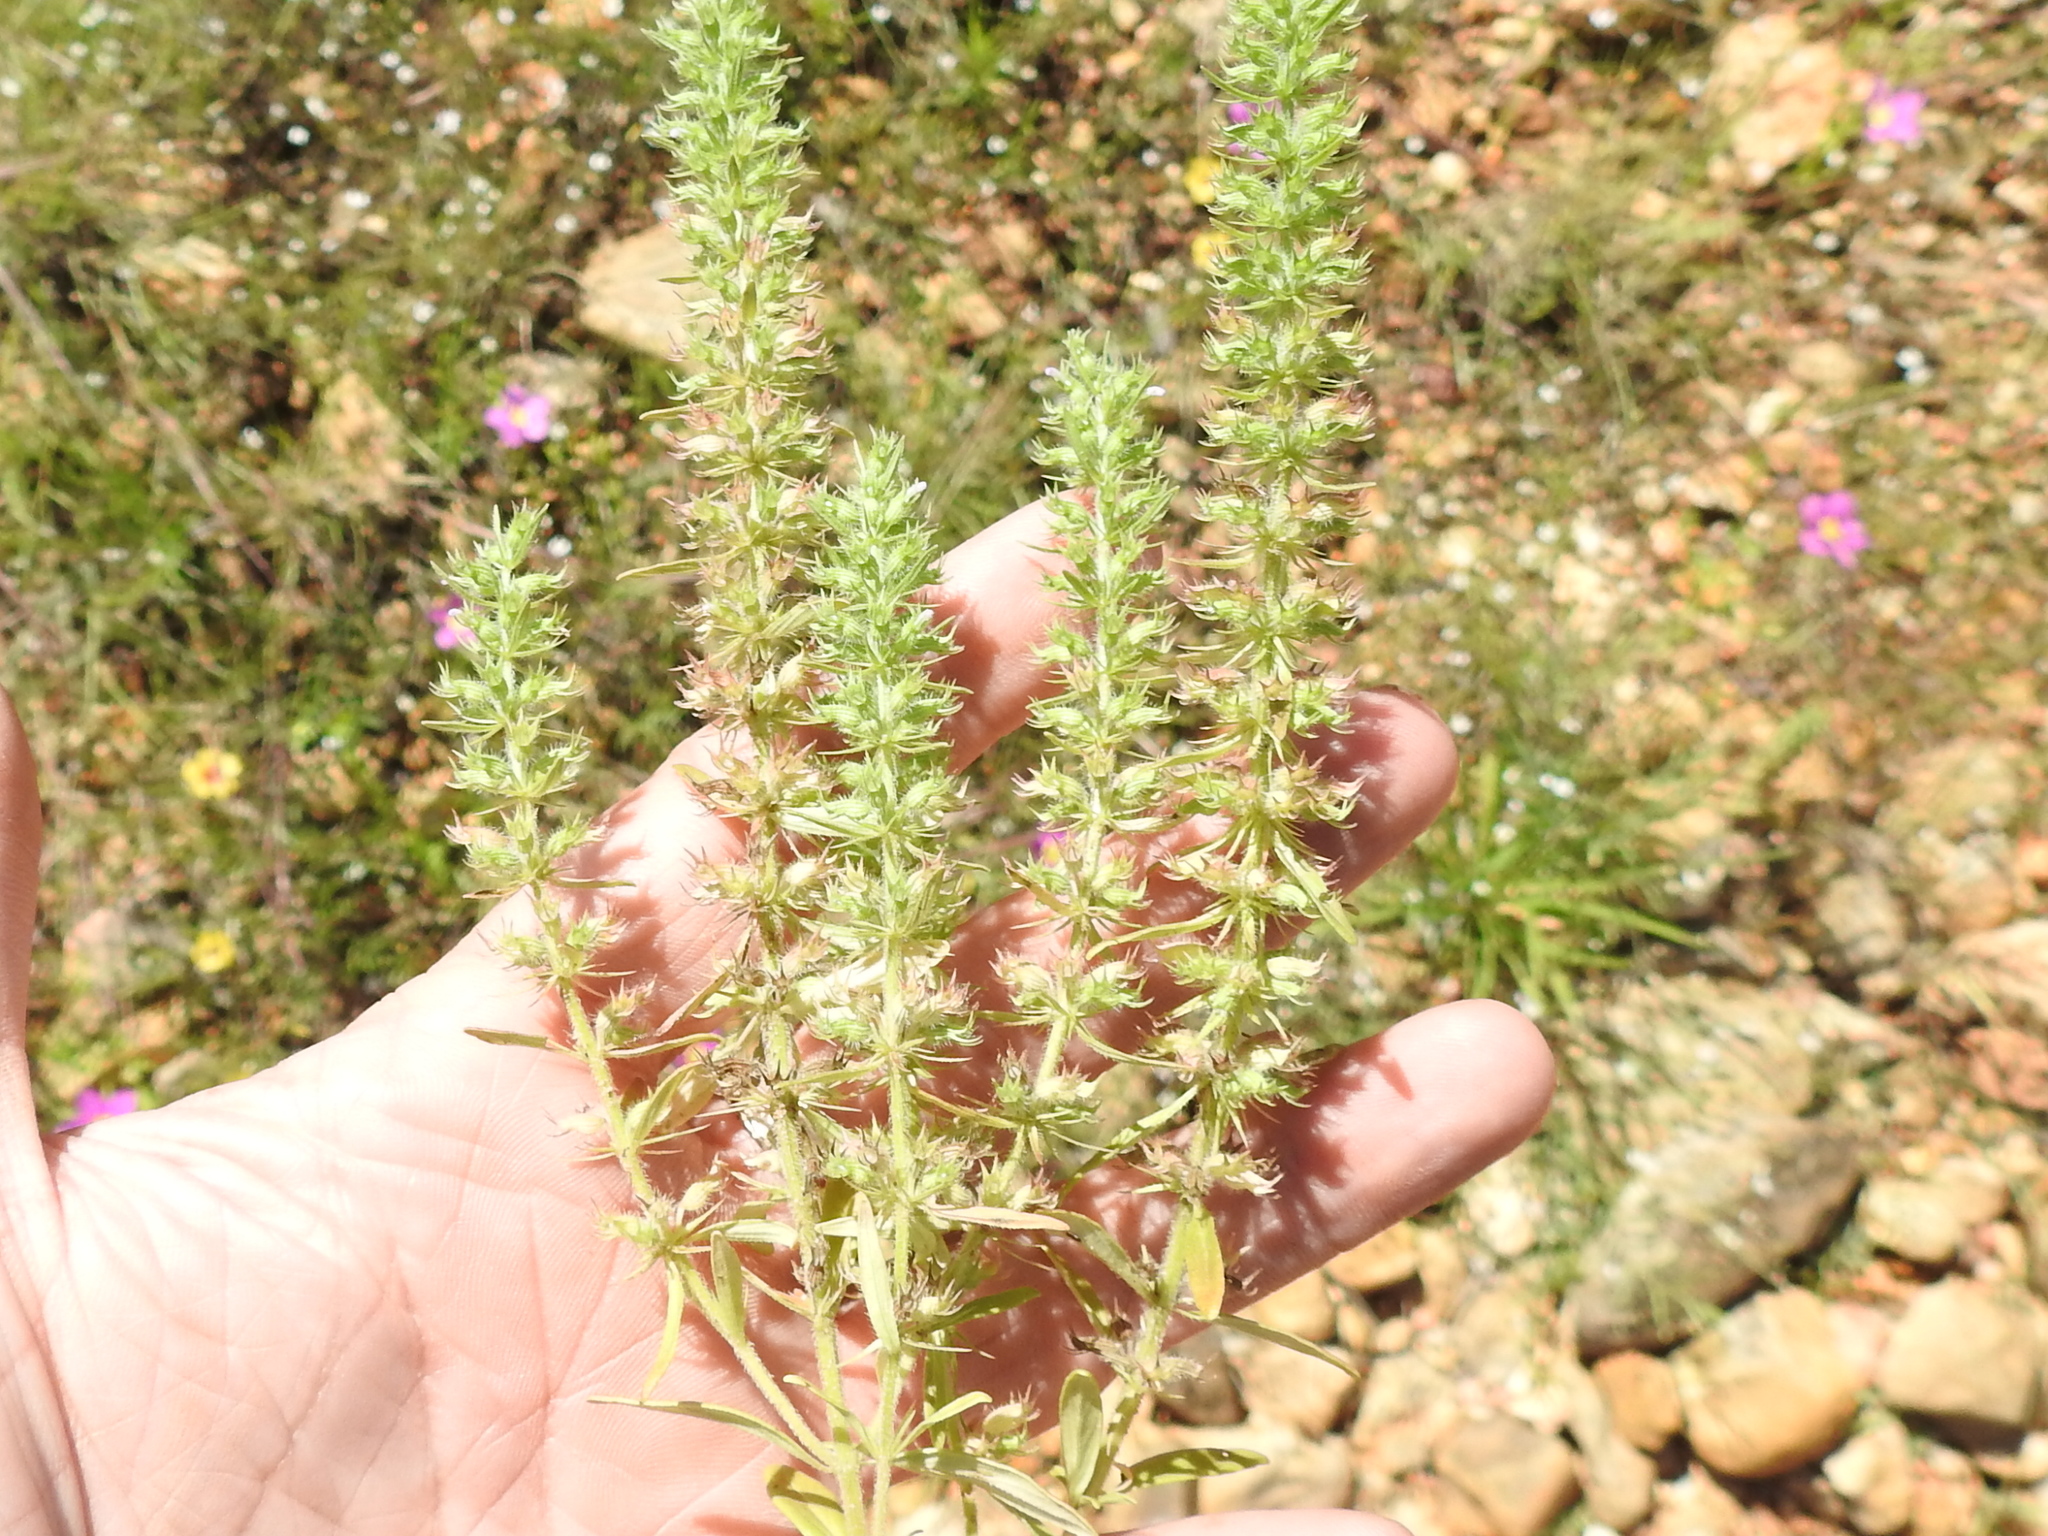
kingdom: Plantae
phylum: Tracheophyta
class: Magnoliopsida
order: Lamiales
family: Lamiaceae
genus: Hedeoma
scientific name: Hedeoma hispida
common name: Mock pennyroyal
